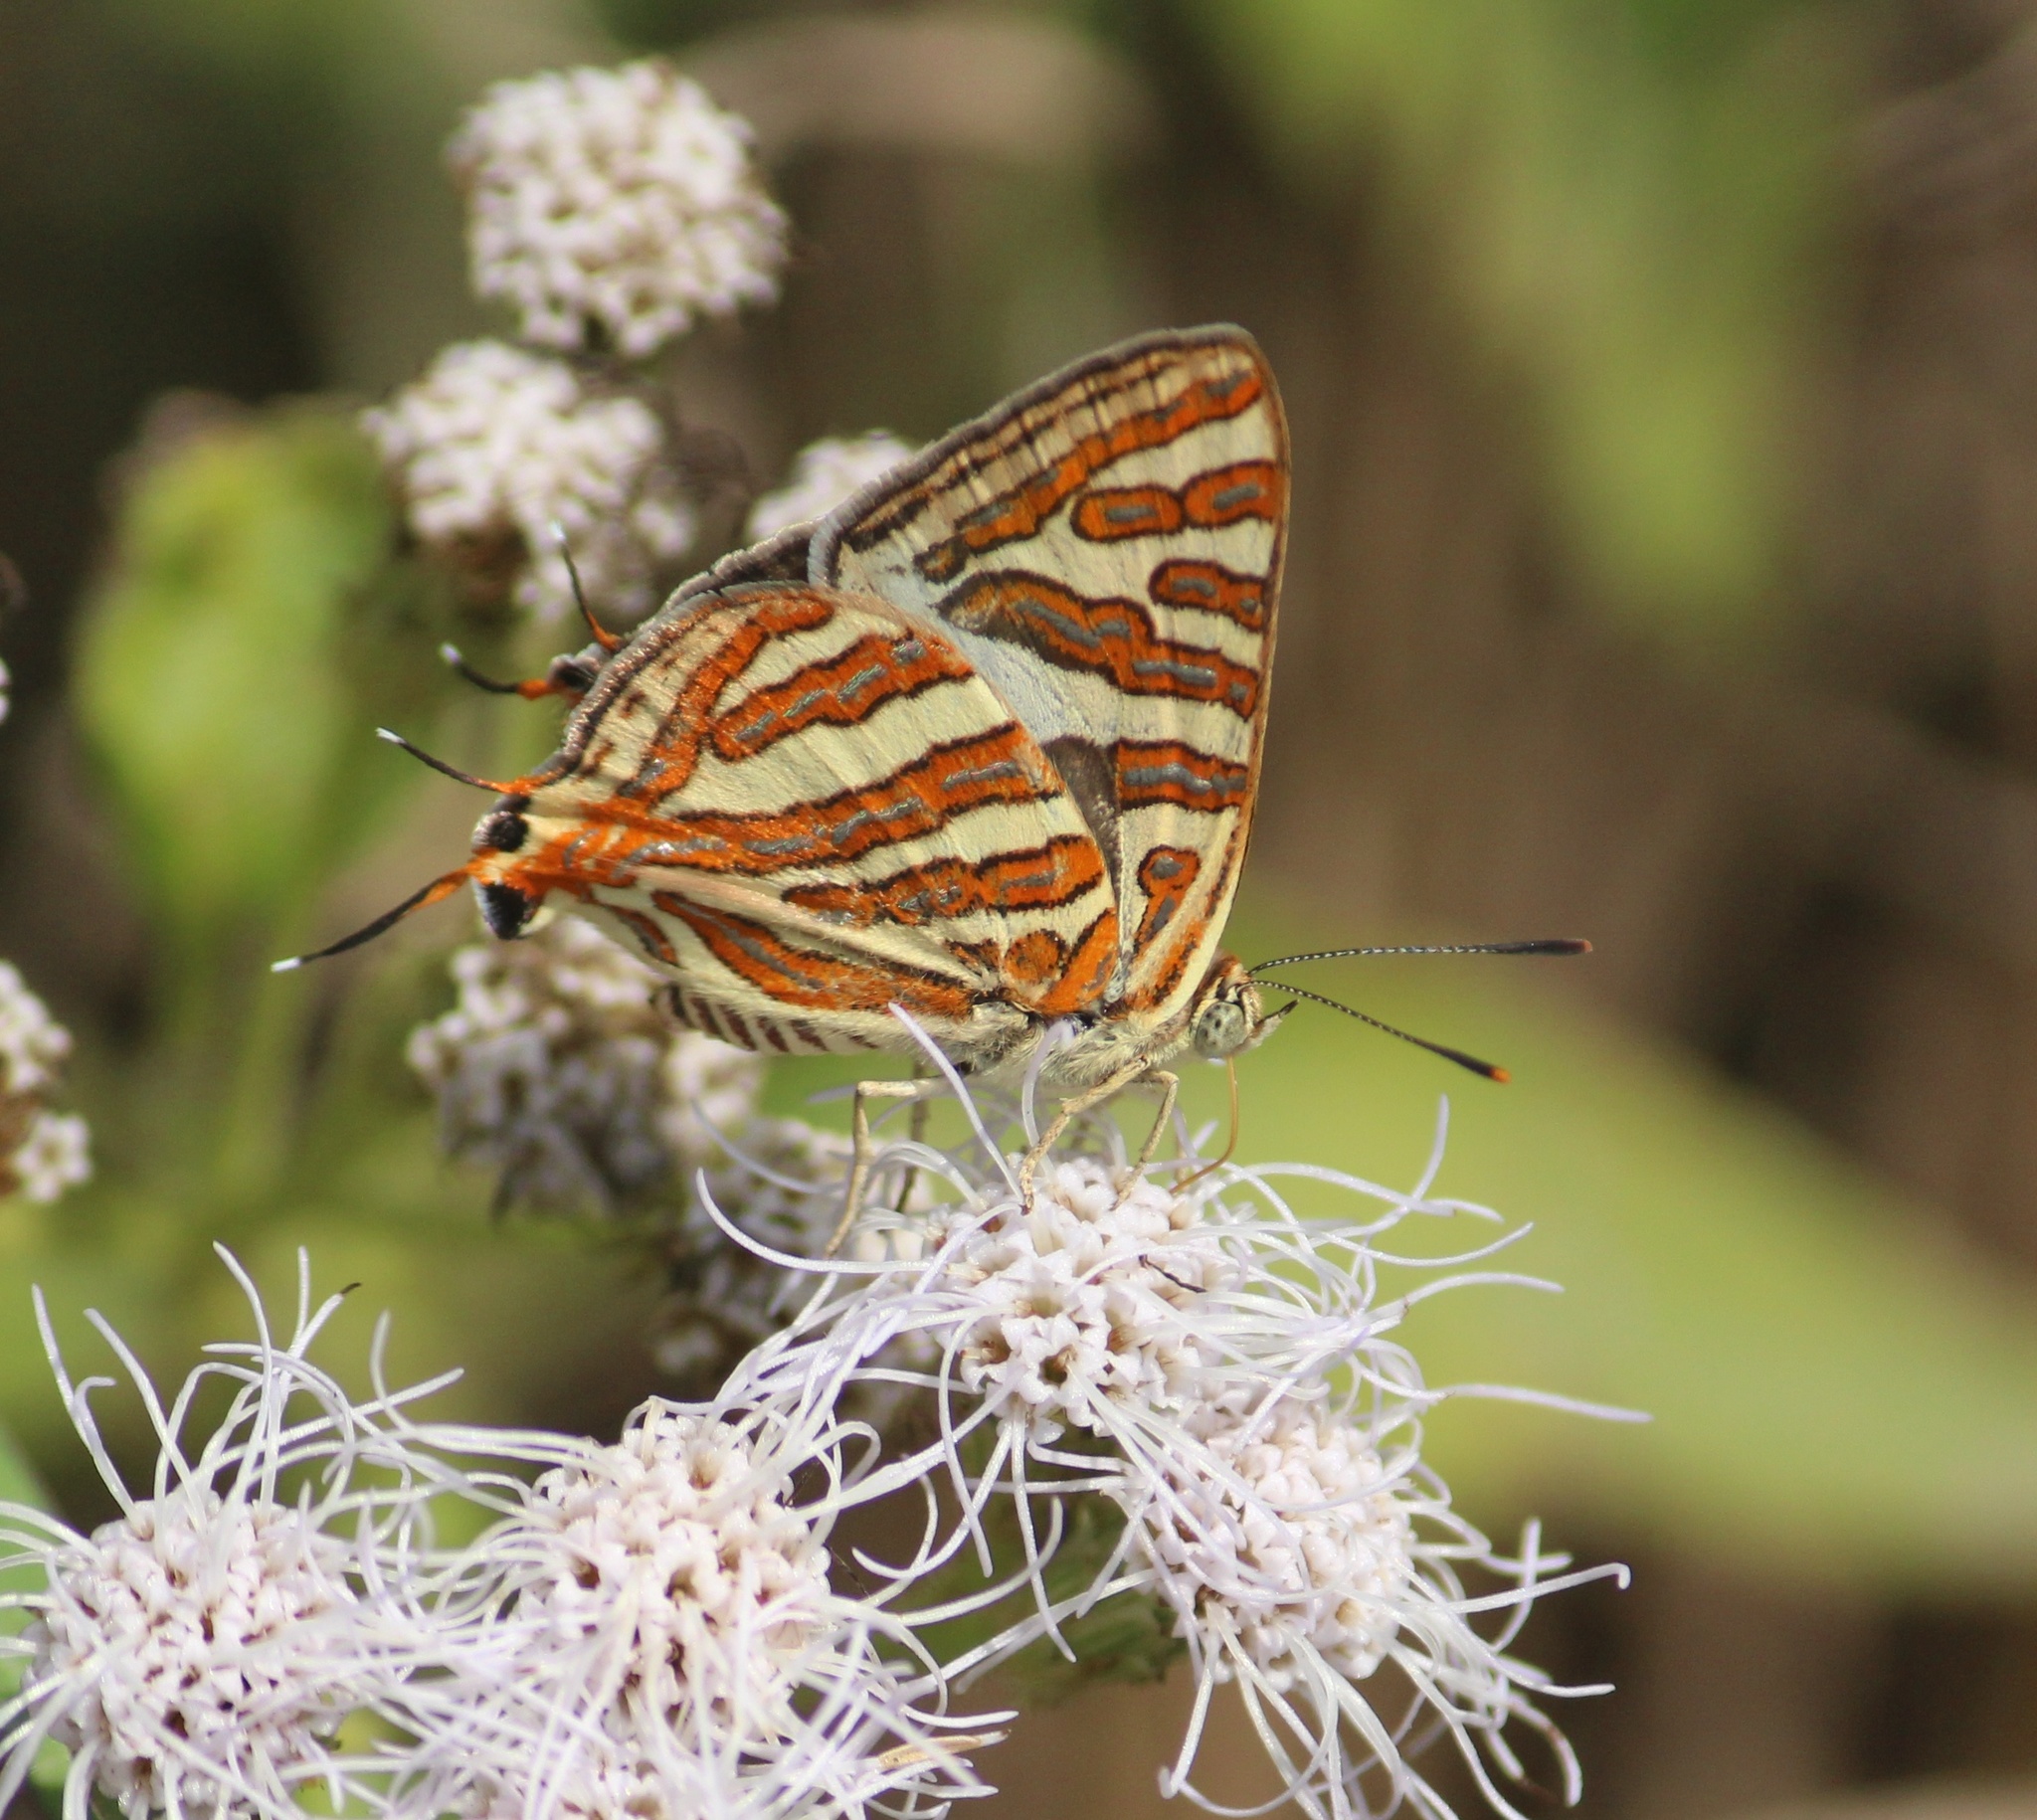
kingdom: Animalia
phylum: Arthropoda
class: Insecta
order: Lepidoptera
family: Lycaenidae
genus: Cigaritis
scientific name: Cigaritis vulcanus
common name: Common silverline
